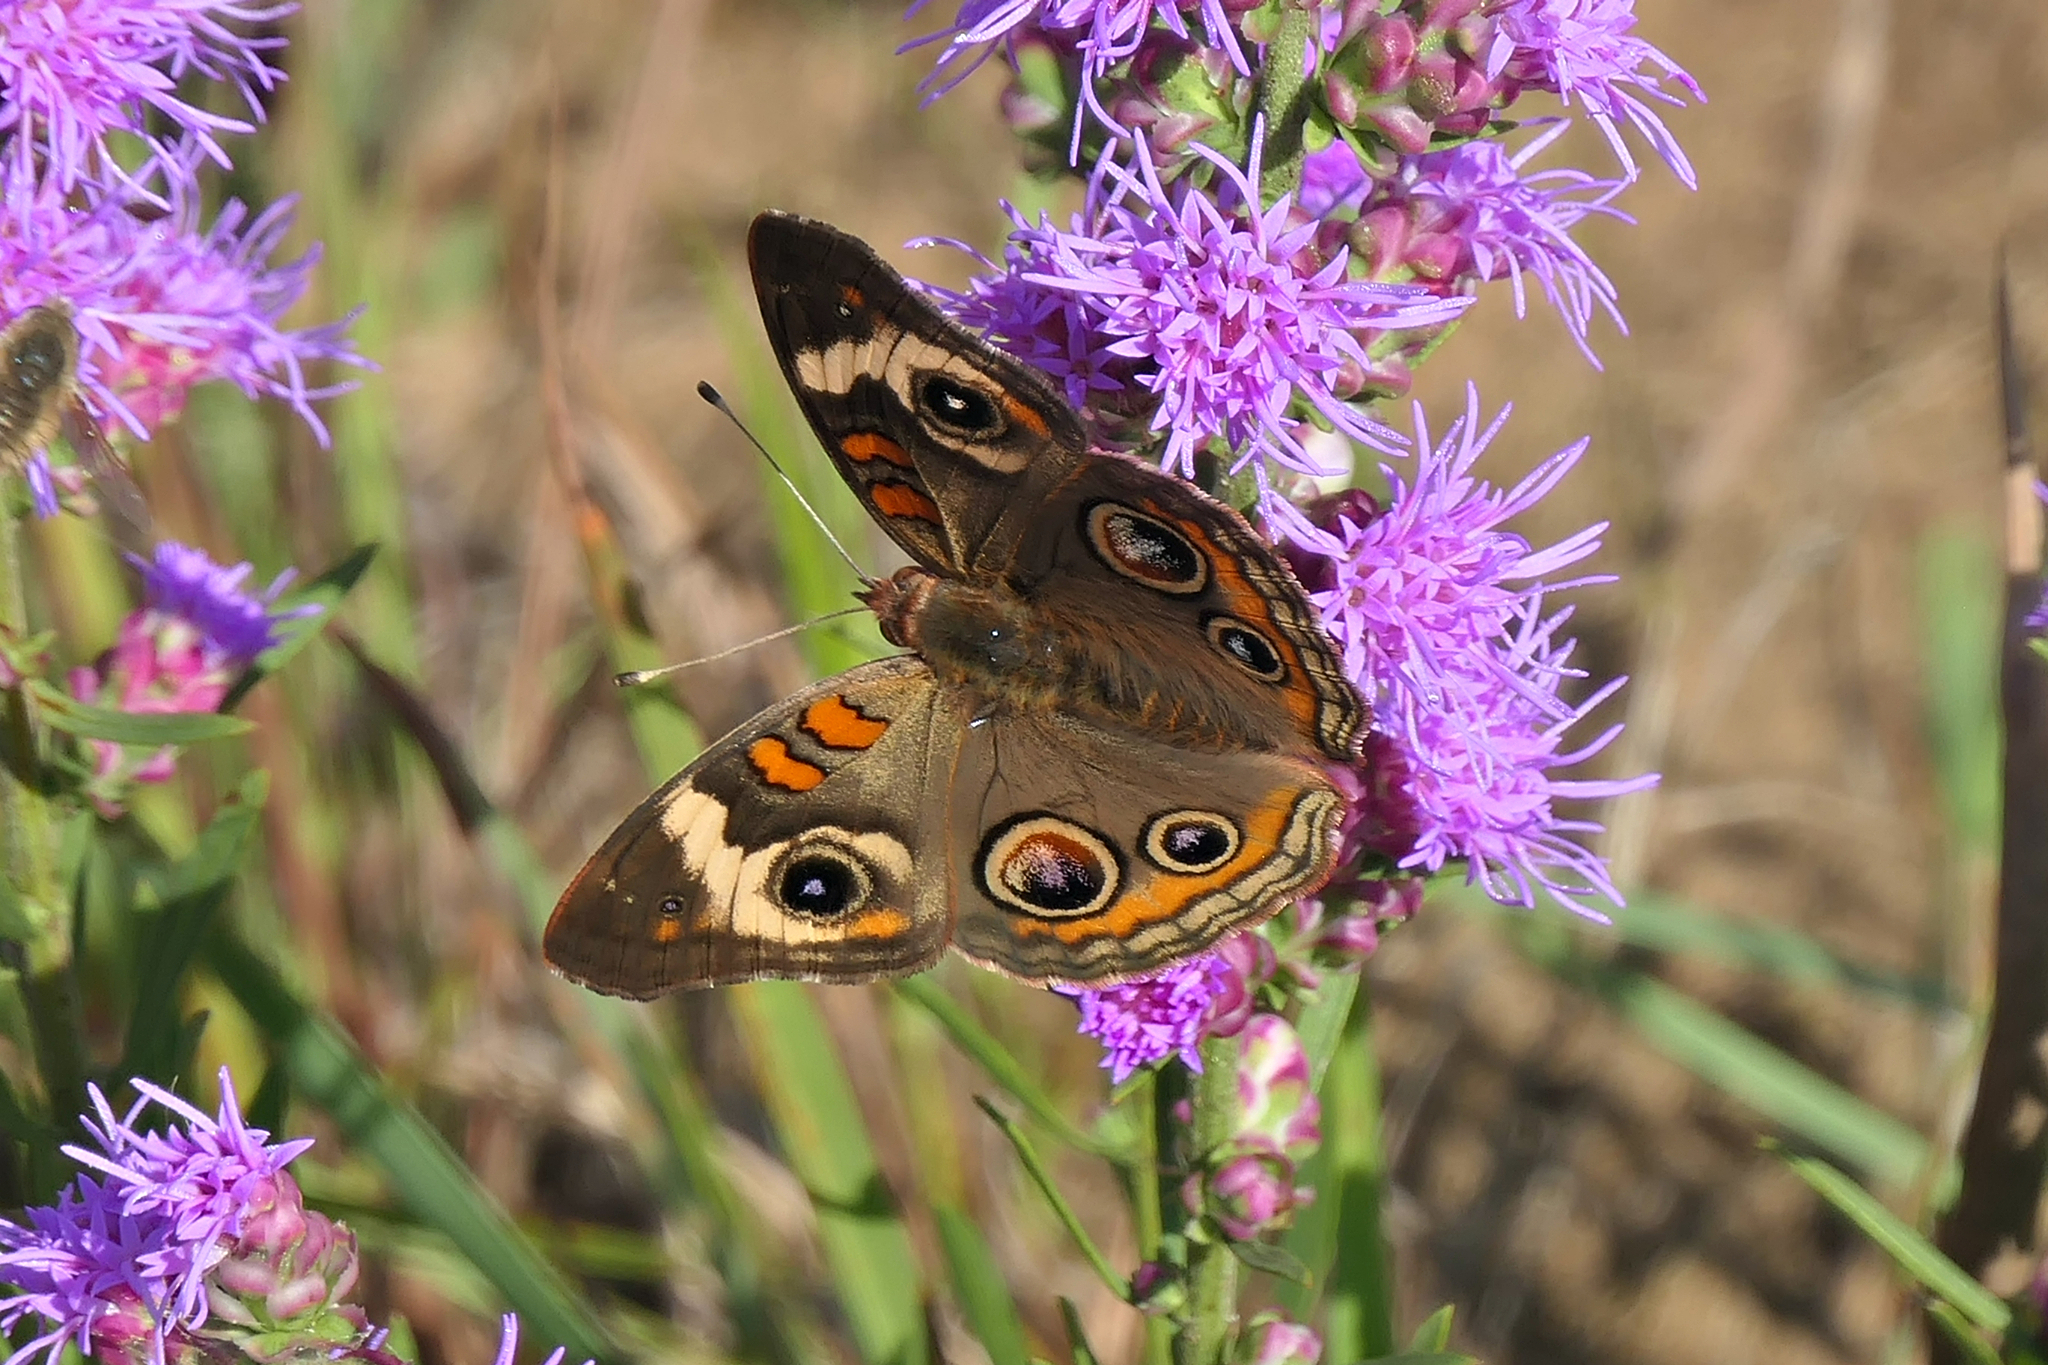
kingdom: Animalia
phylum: Arthropoda
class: Insecta
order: Lepidoptera
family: Nymphalidae
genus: Junonia
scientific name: Junonia coenia
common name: Common buckeye
